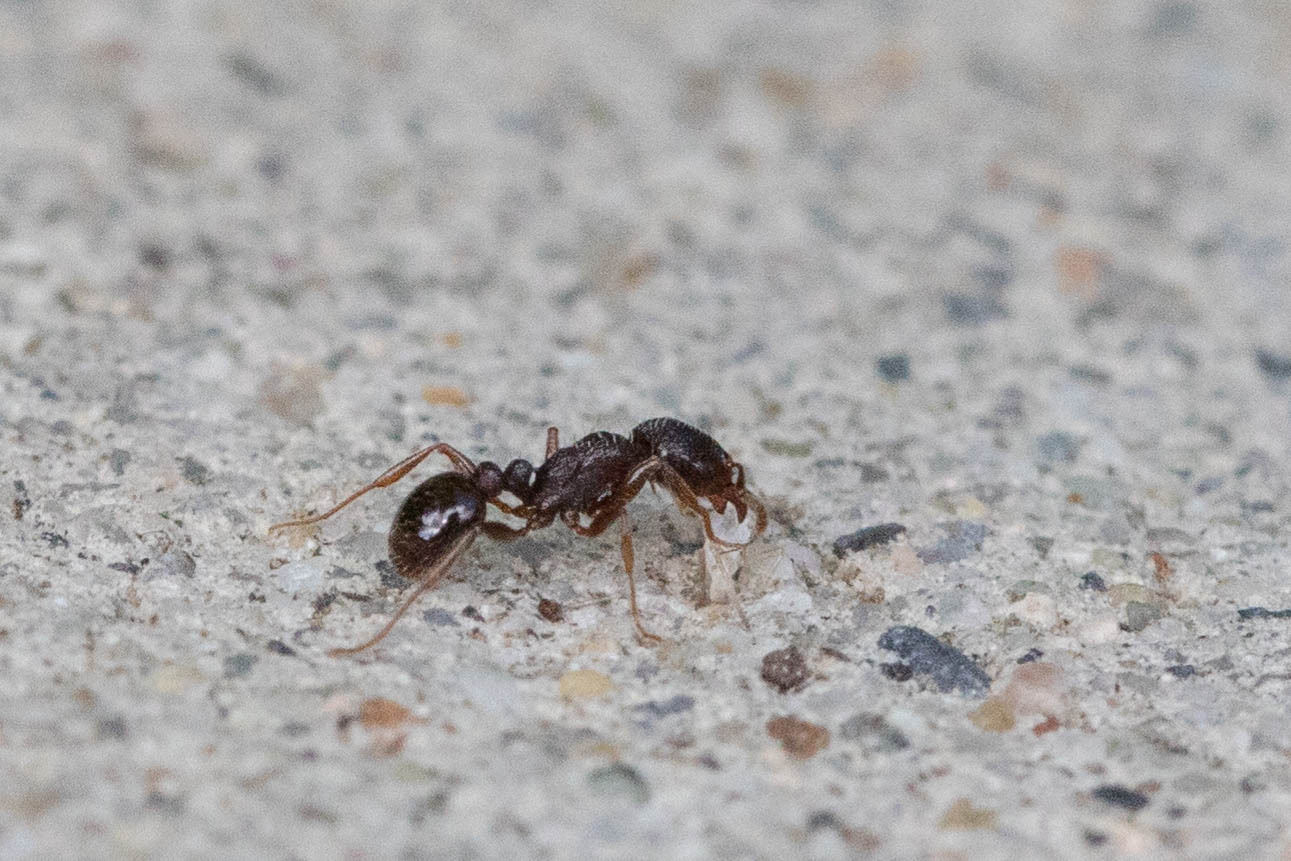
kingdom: Animalia
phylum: Arthropoda
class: Insecta
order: Hymenoptera
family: Formicidae
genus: Tetramorium
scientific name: Tetramorium immigrans
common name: Pavement ant
